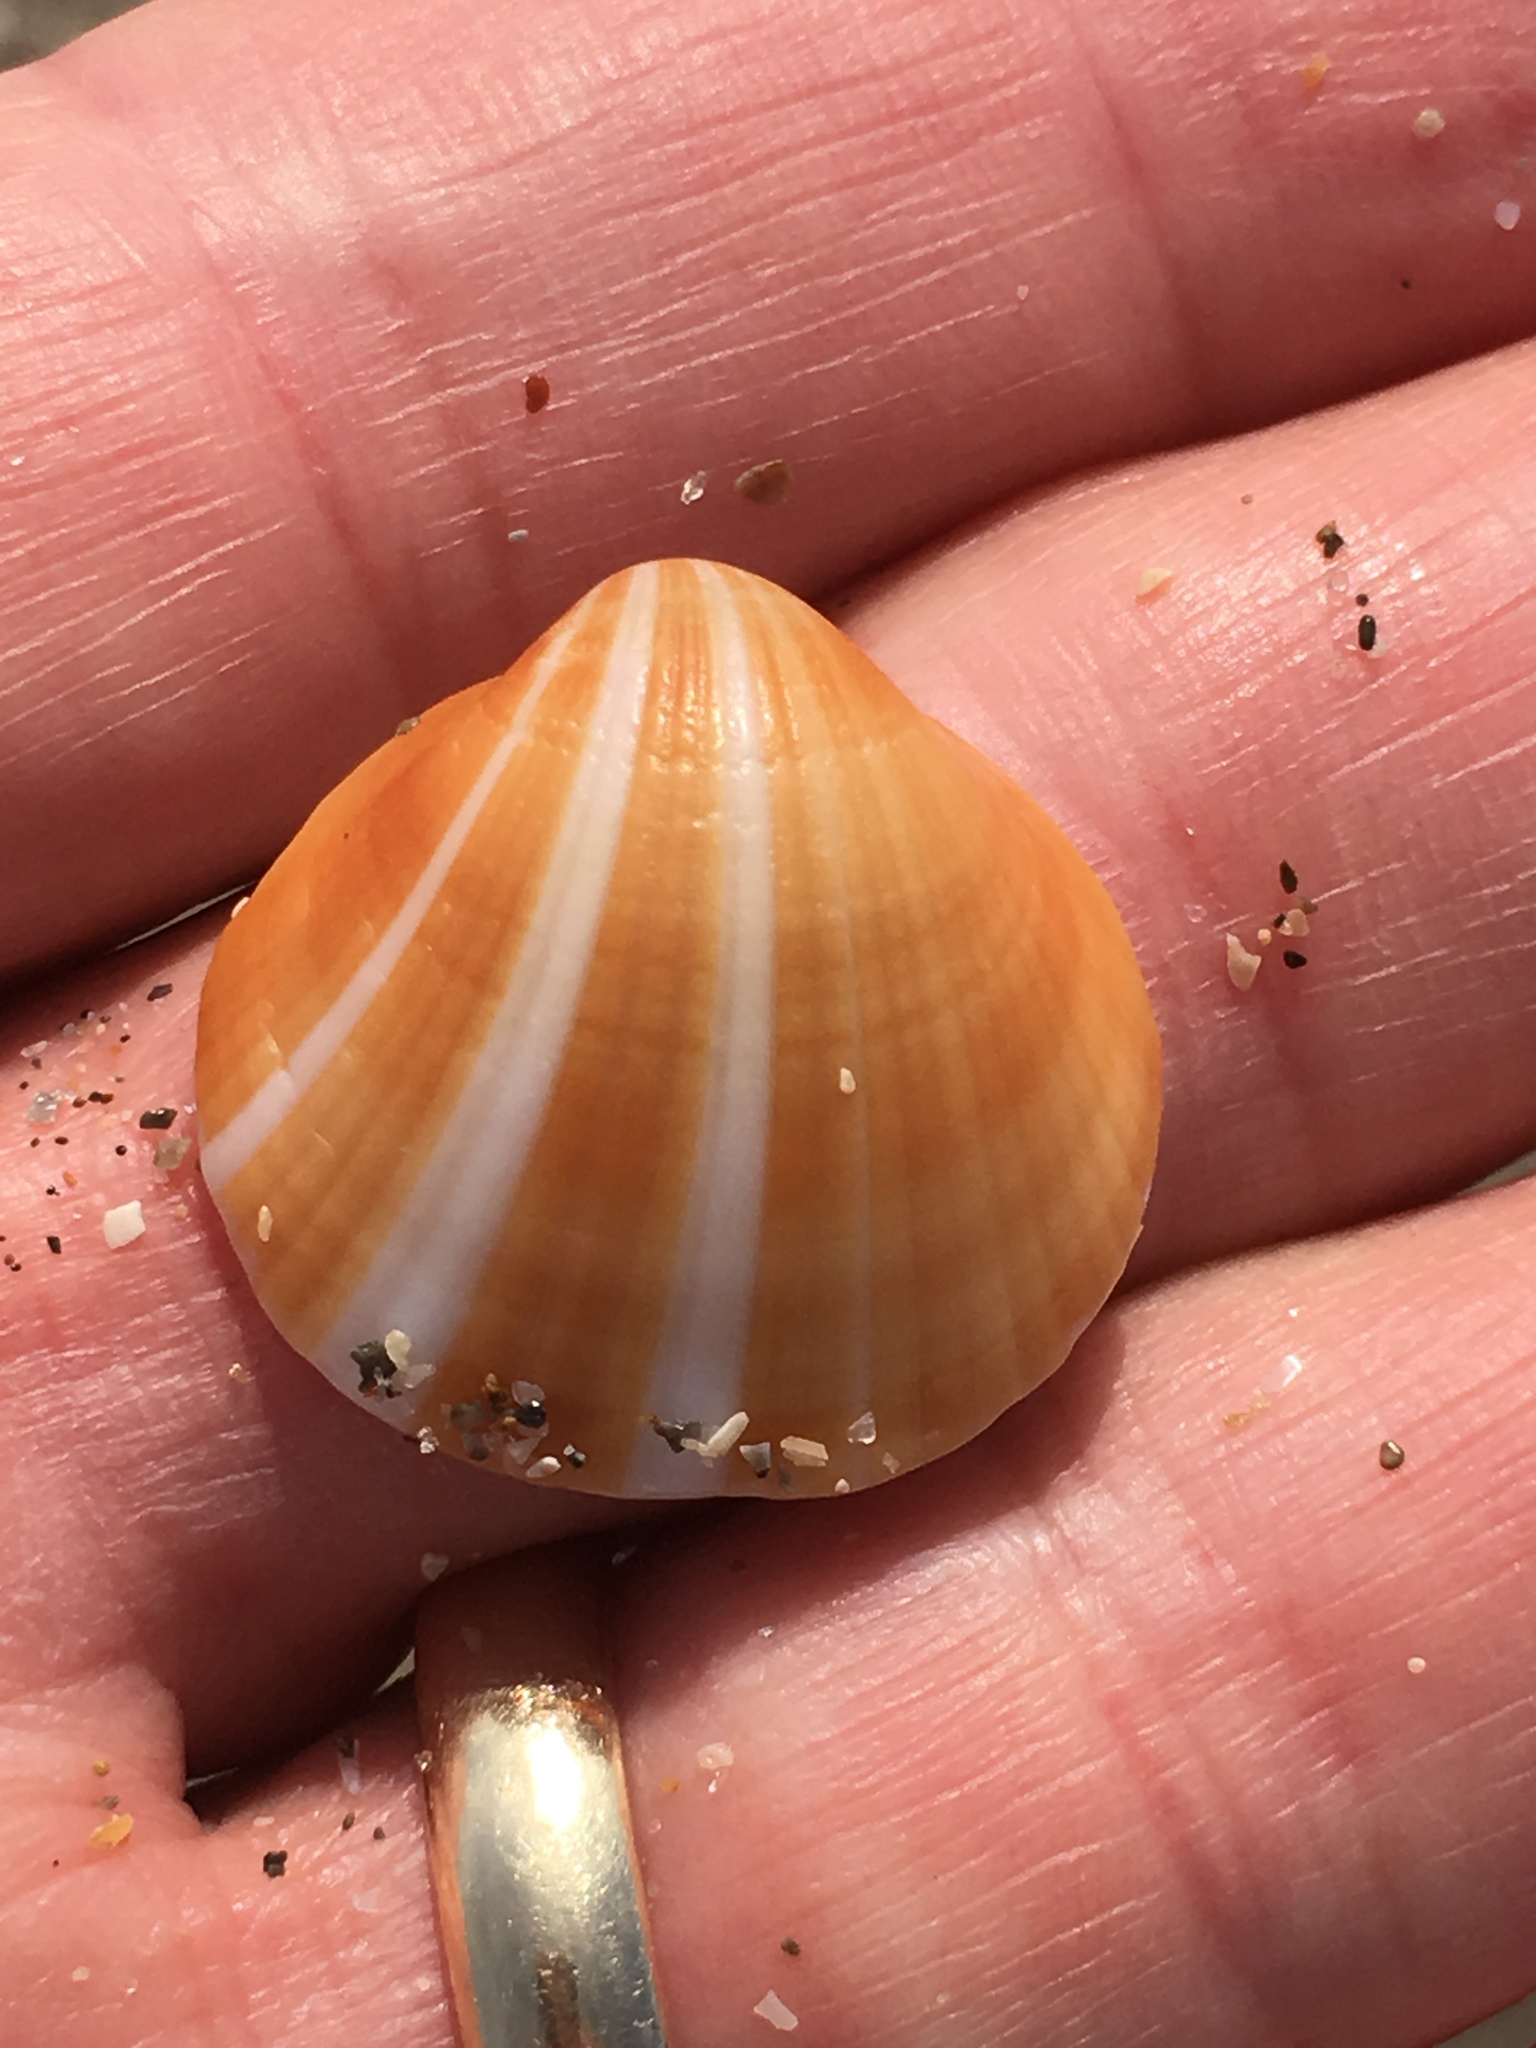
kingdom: Animalia
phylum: Mollusca
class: Bivalvia
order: Arcida
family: Glycymerididae
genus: Glycymeris
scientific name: Glycymeris spectralis
